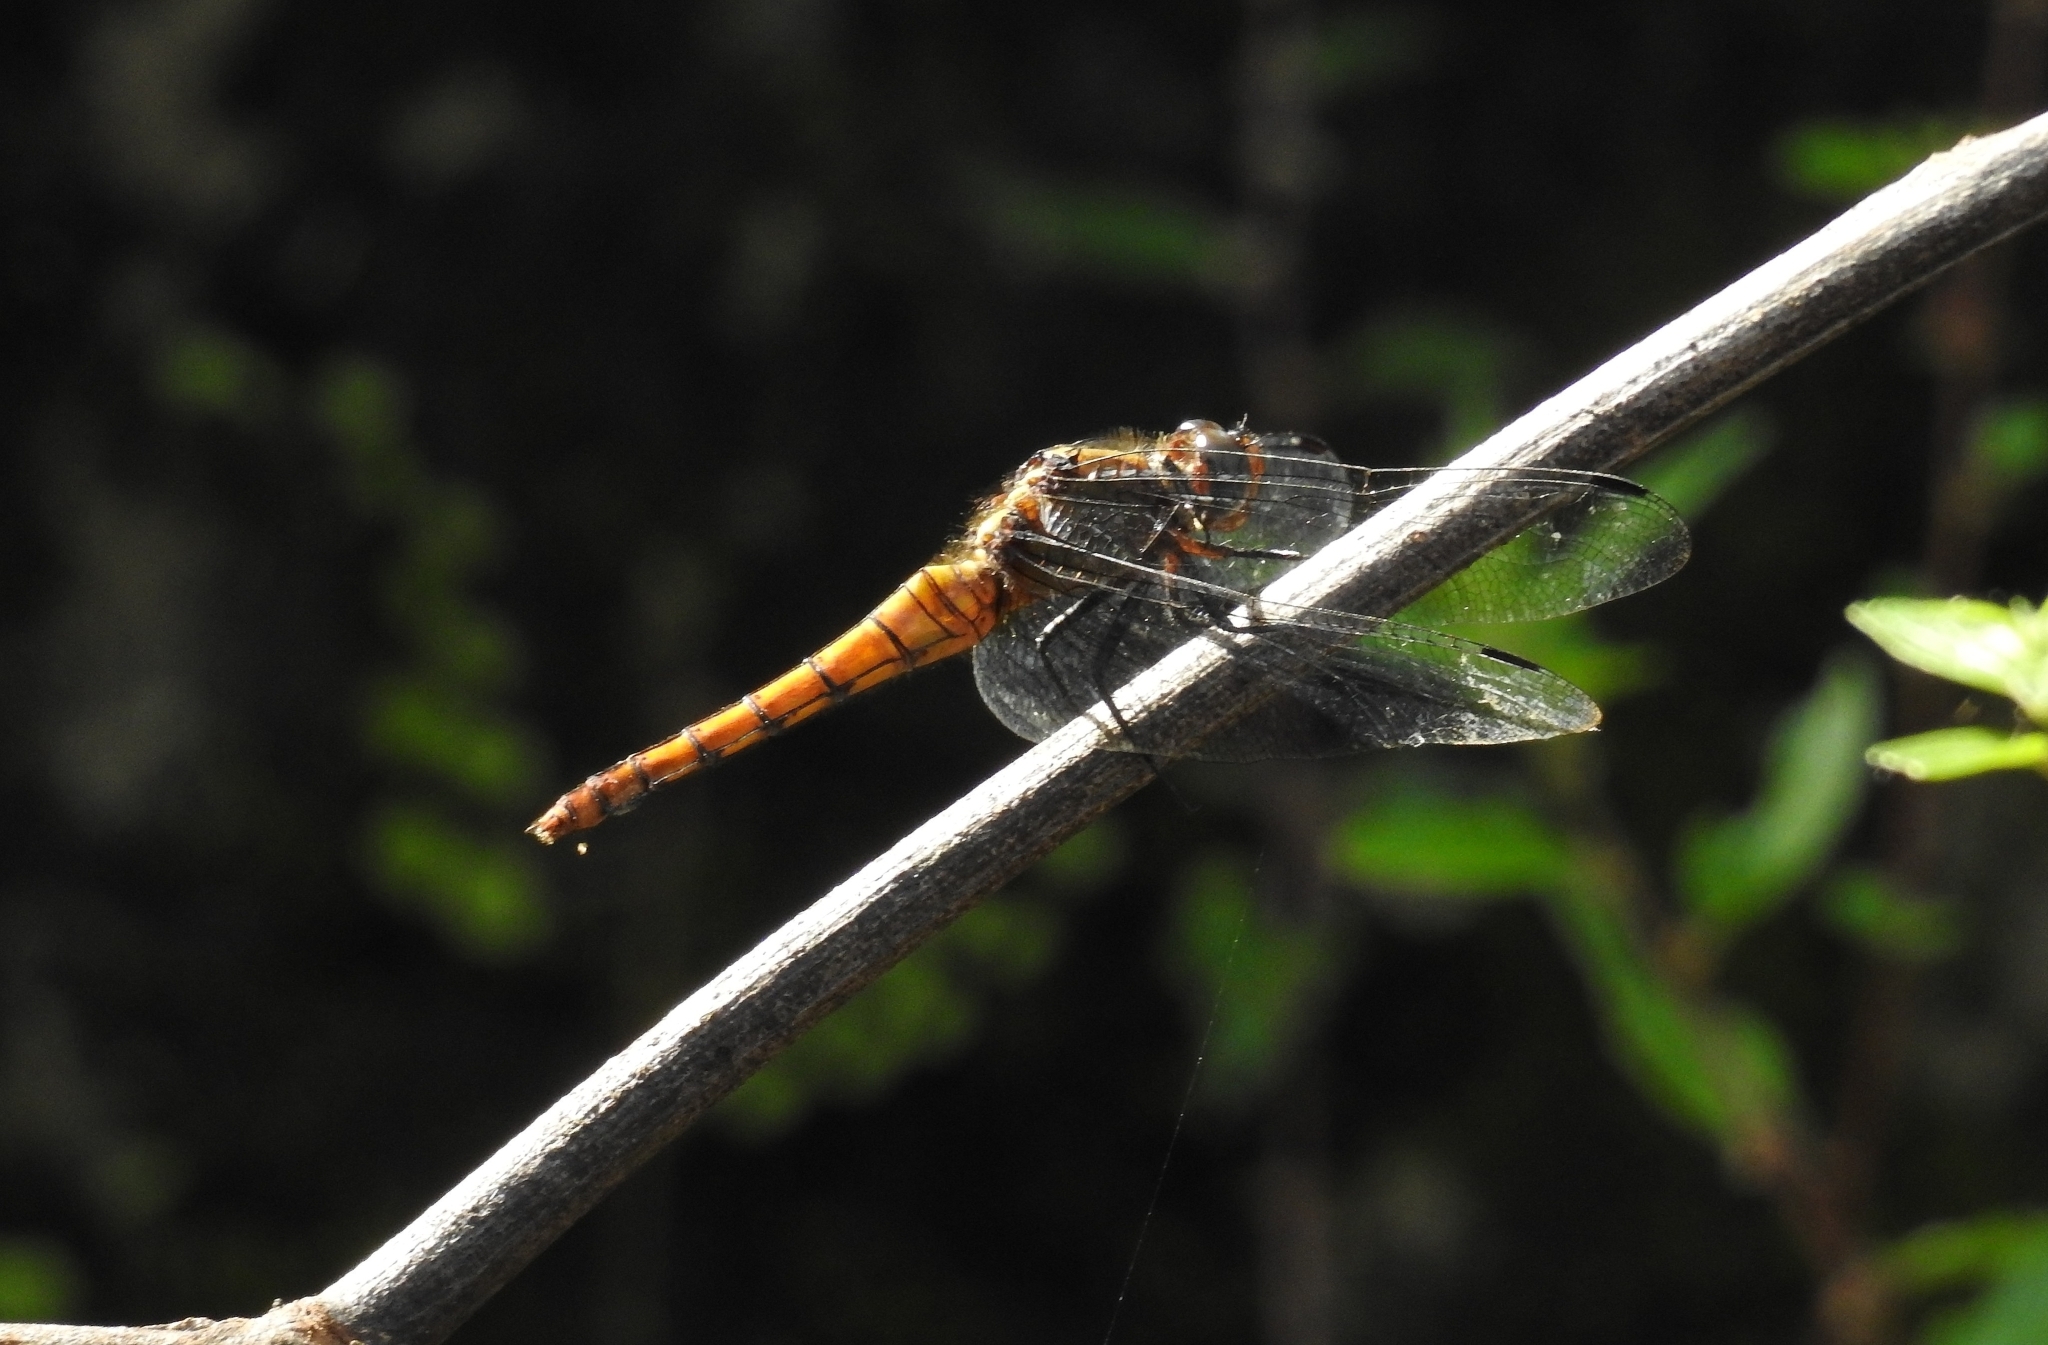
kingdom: Animalia
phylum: Arthropoda
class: Insecta
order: Odonata
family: Libellulidae
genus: Orthetrum
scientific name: Orthetrum chrysis
